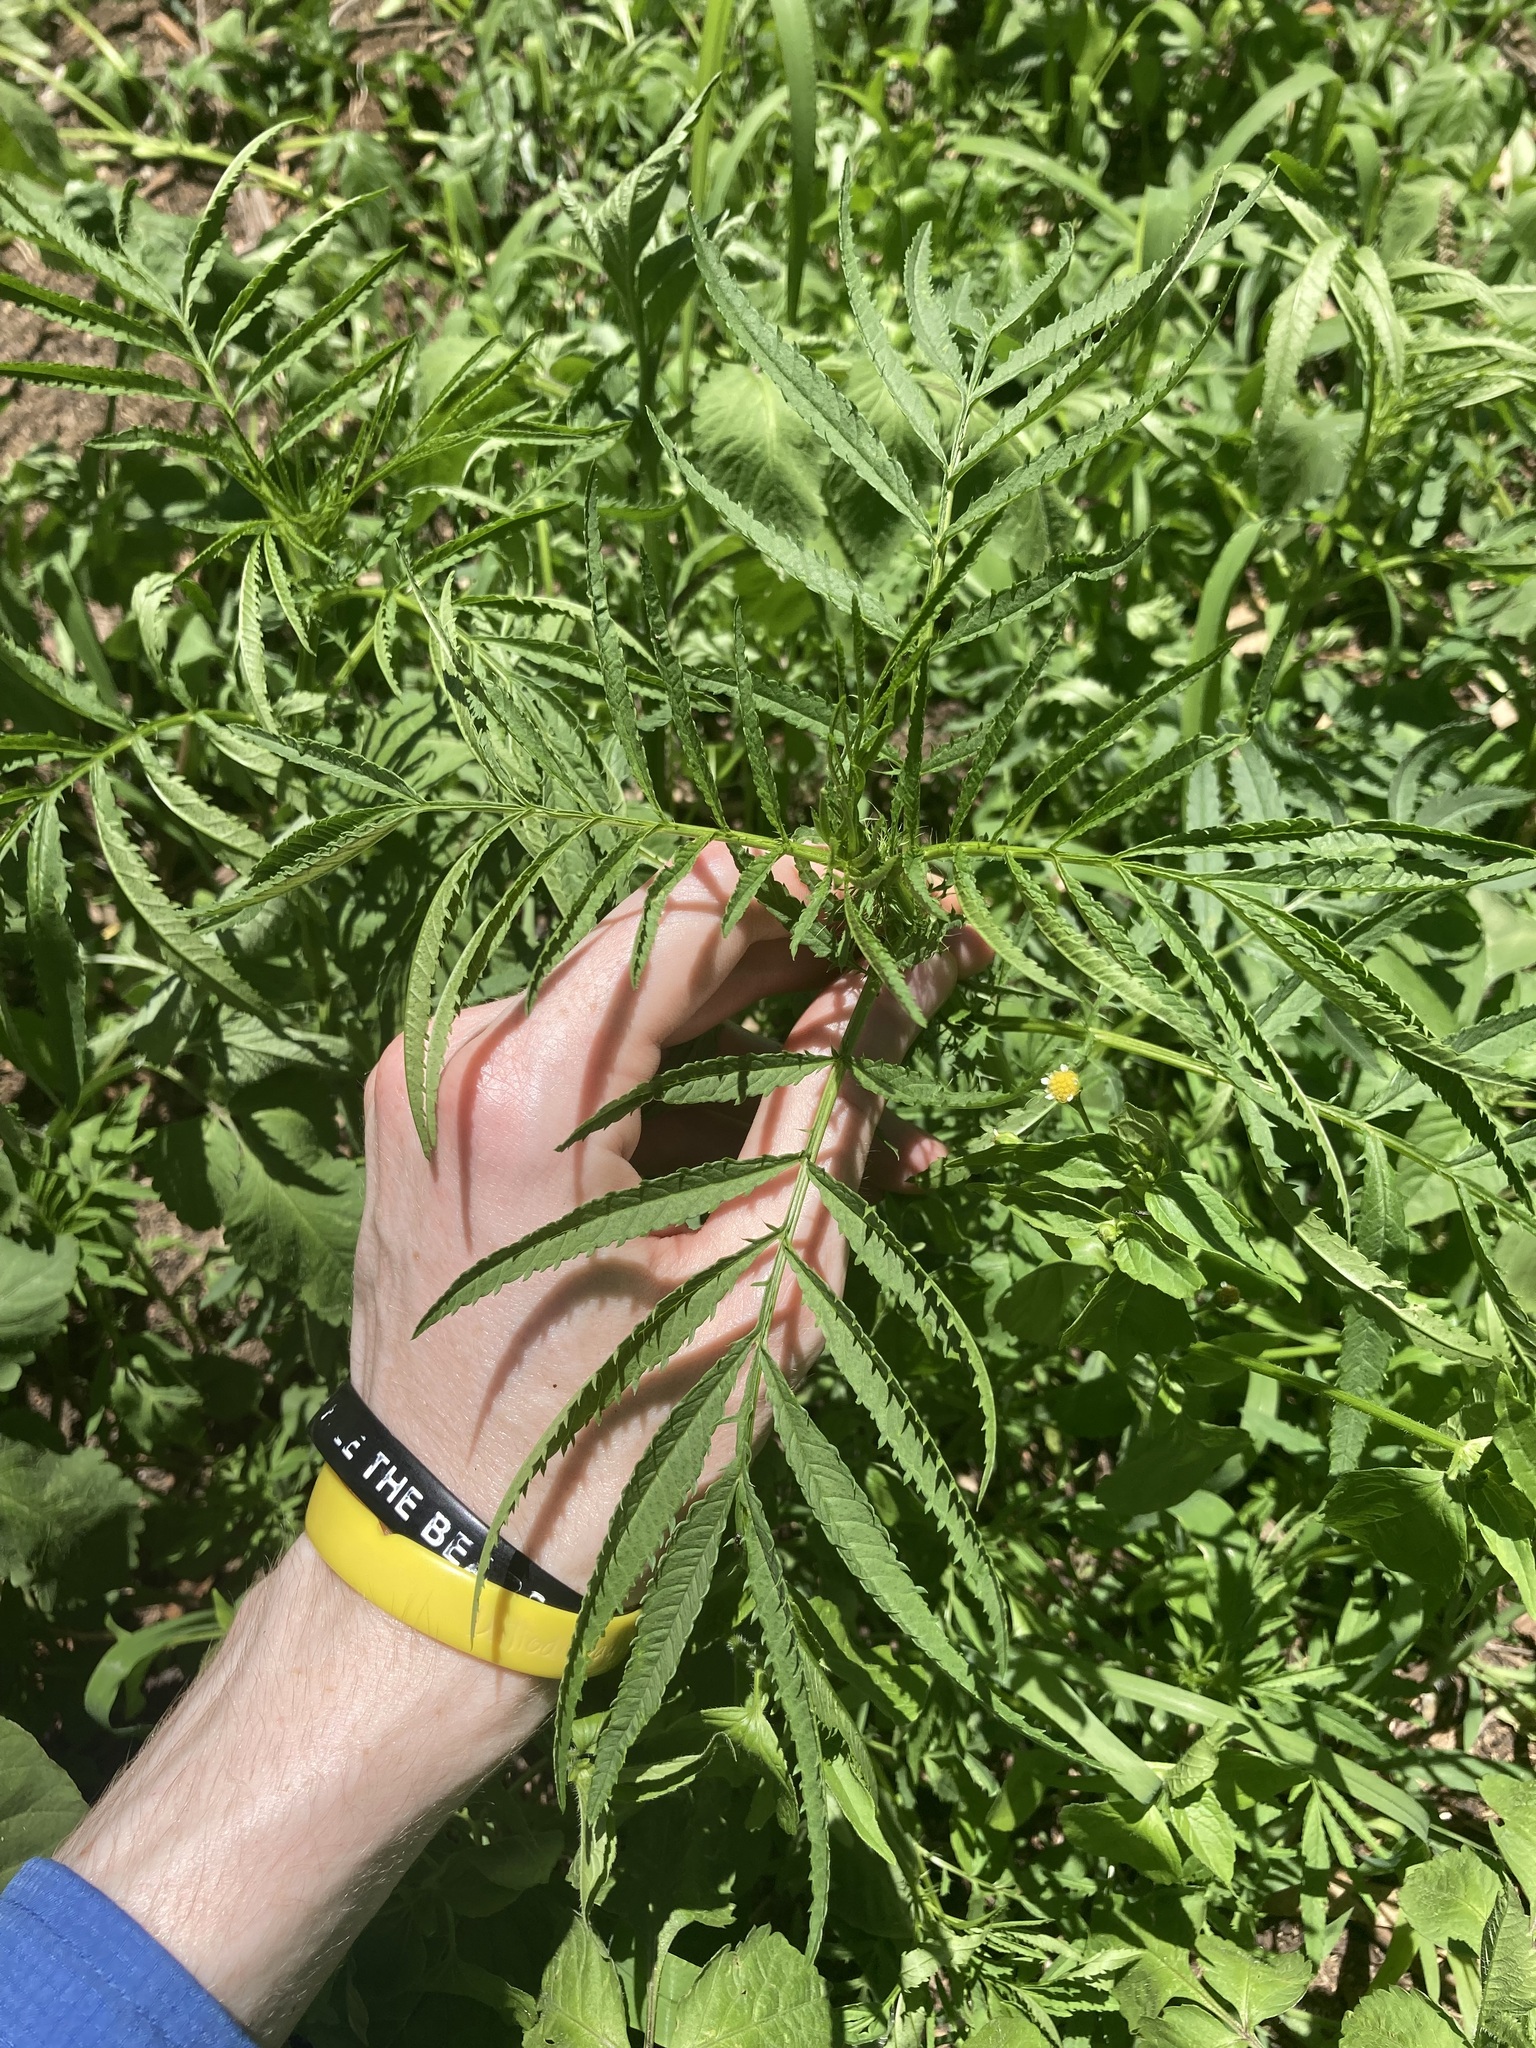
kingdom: Plantae
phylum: Tracheophyta
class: Magnoliopsida
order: Asterales
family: Asteraceae
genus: Tagetes
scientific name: Tagetes minuta
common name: Muster john henry
